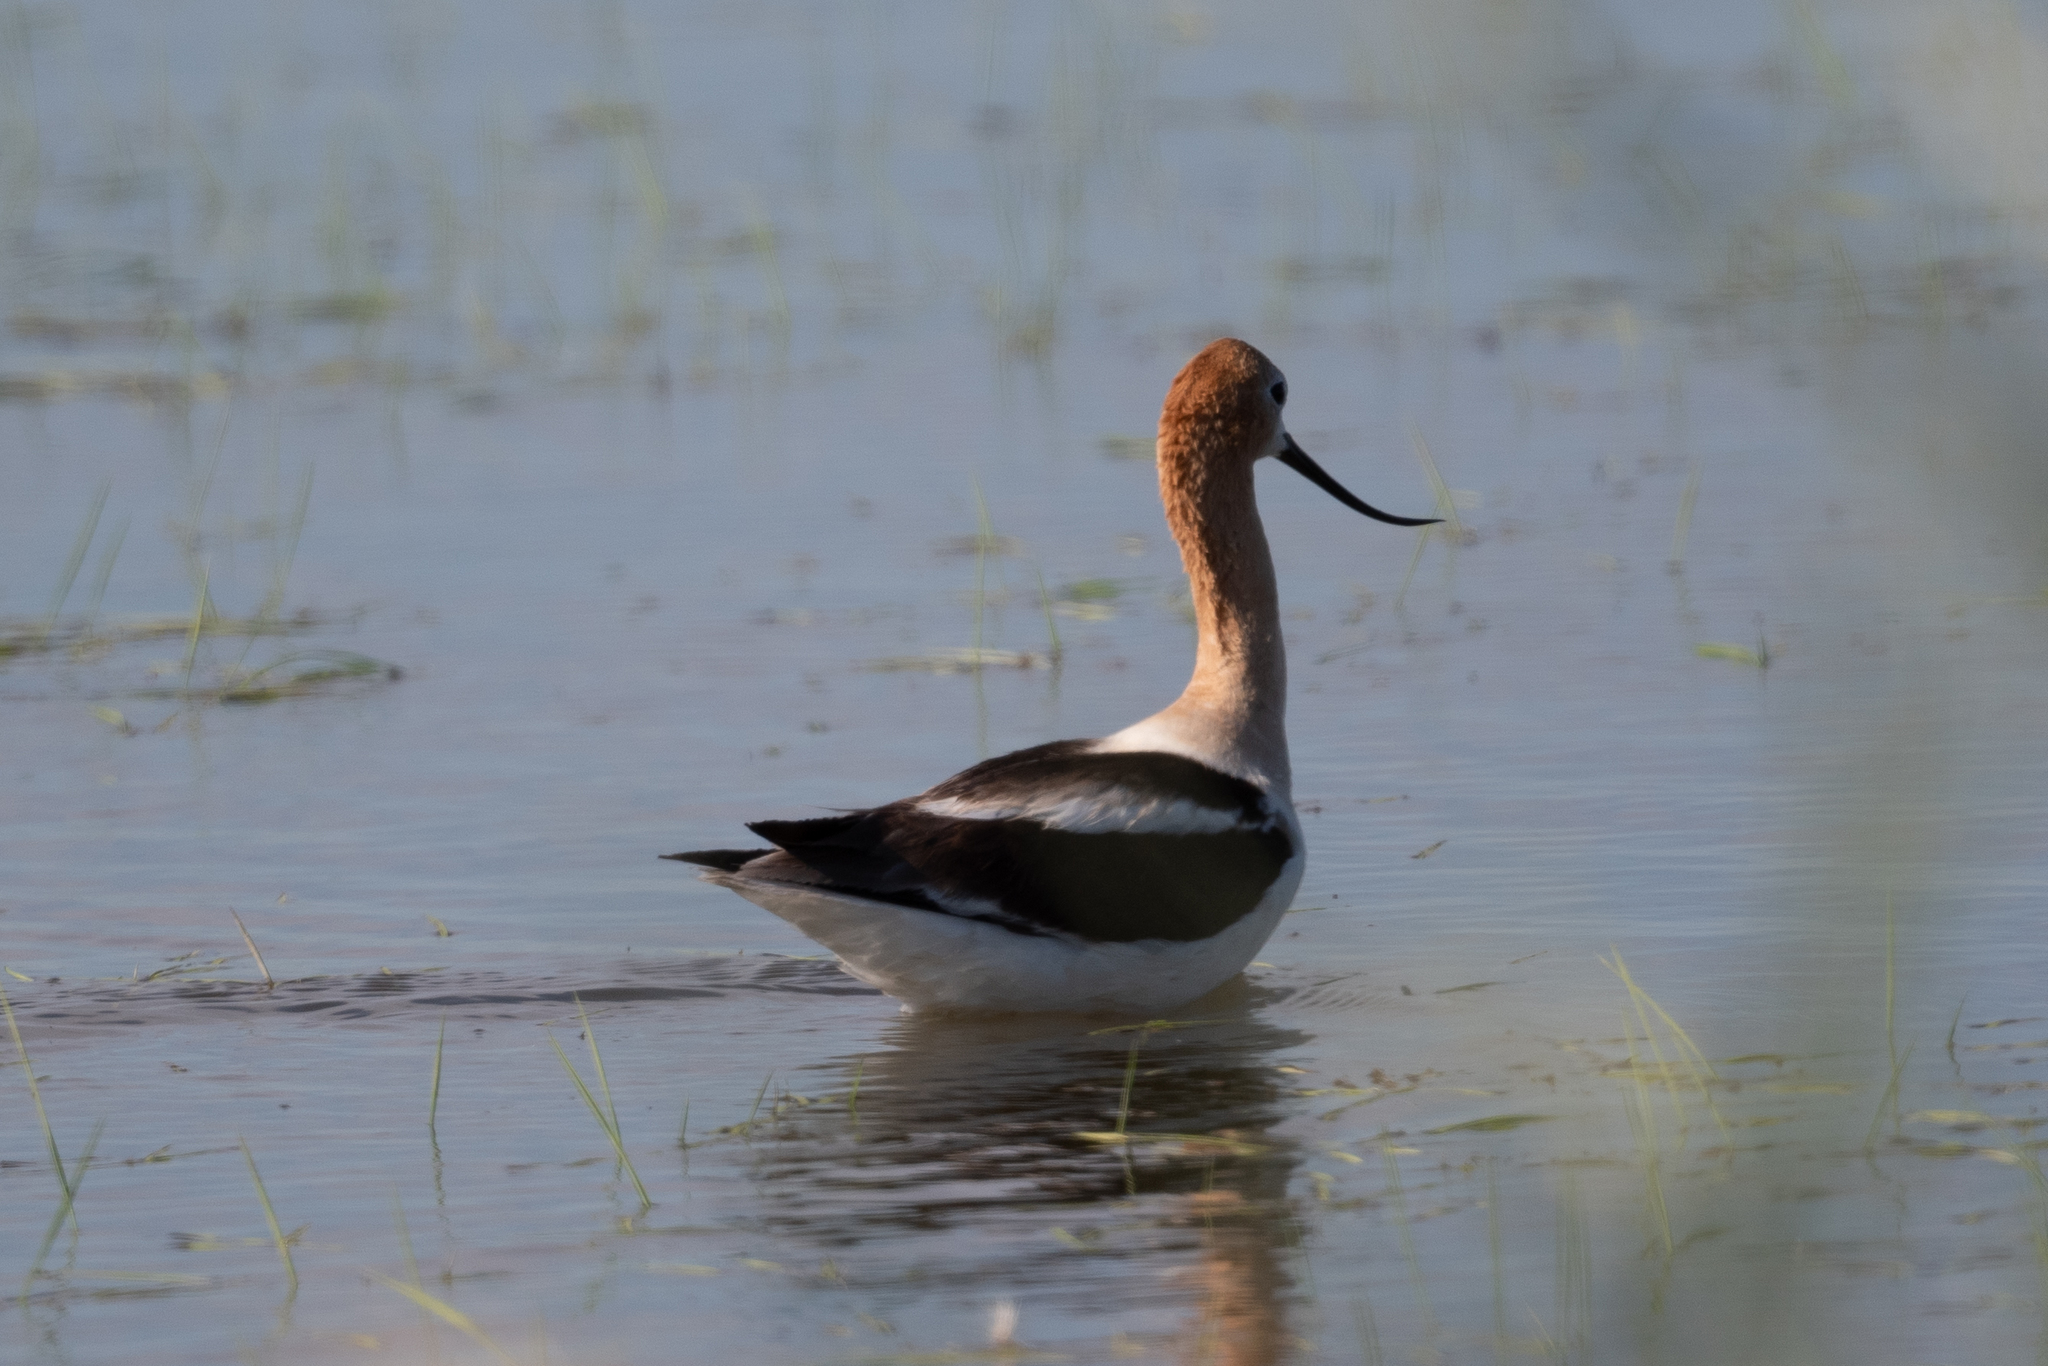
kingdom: Animalia
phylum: Chordata
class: Aves
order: Charadriiformes
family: Recurvirostridae
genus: Recurvirostra
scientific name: Recurvirostra americana
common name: American avocet
